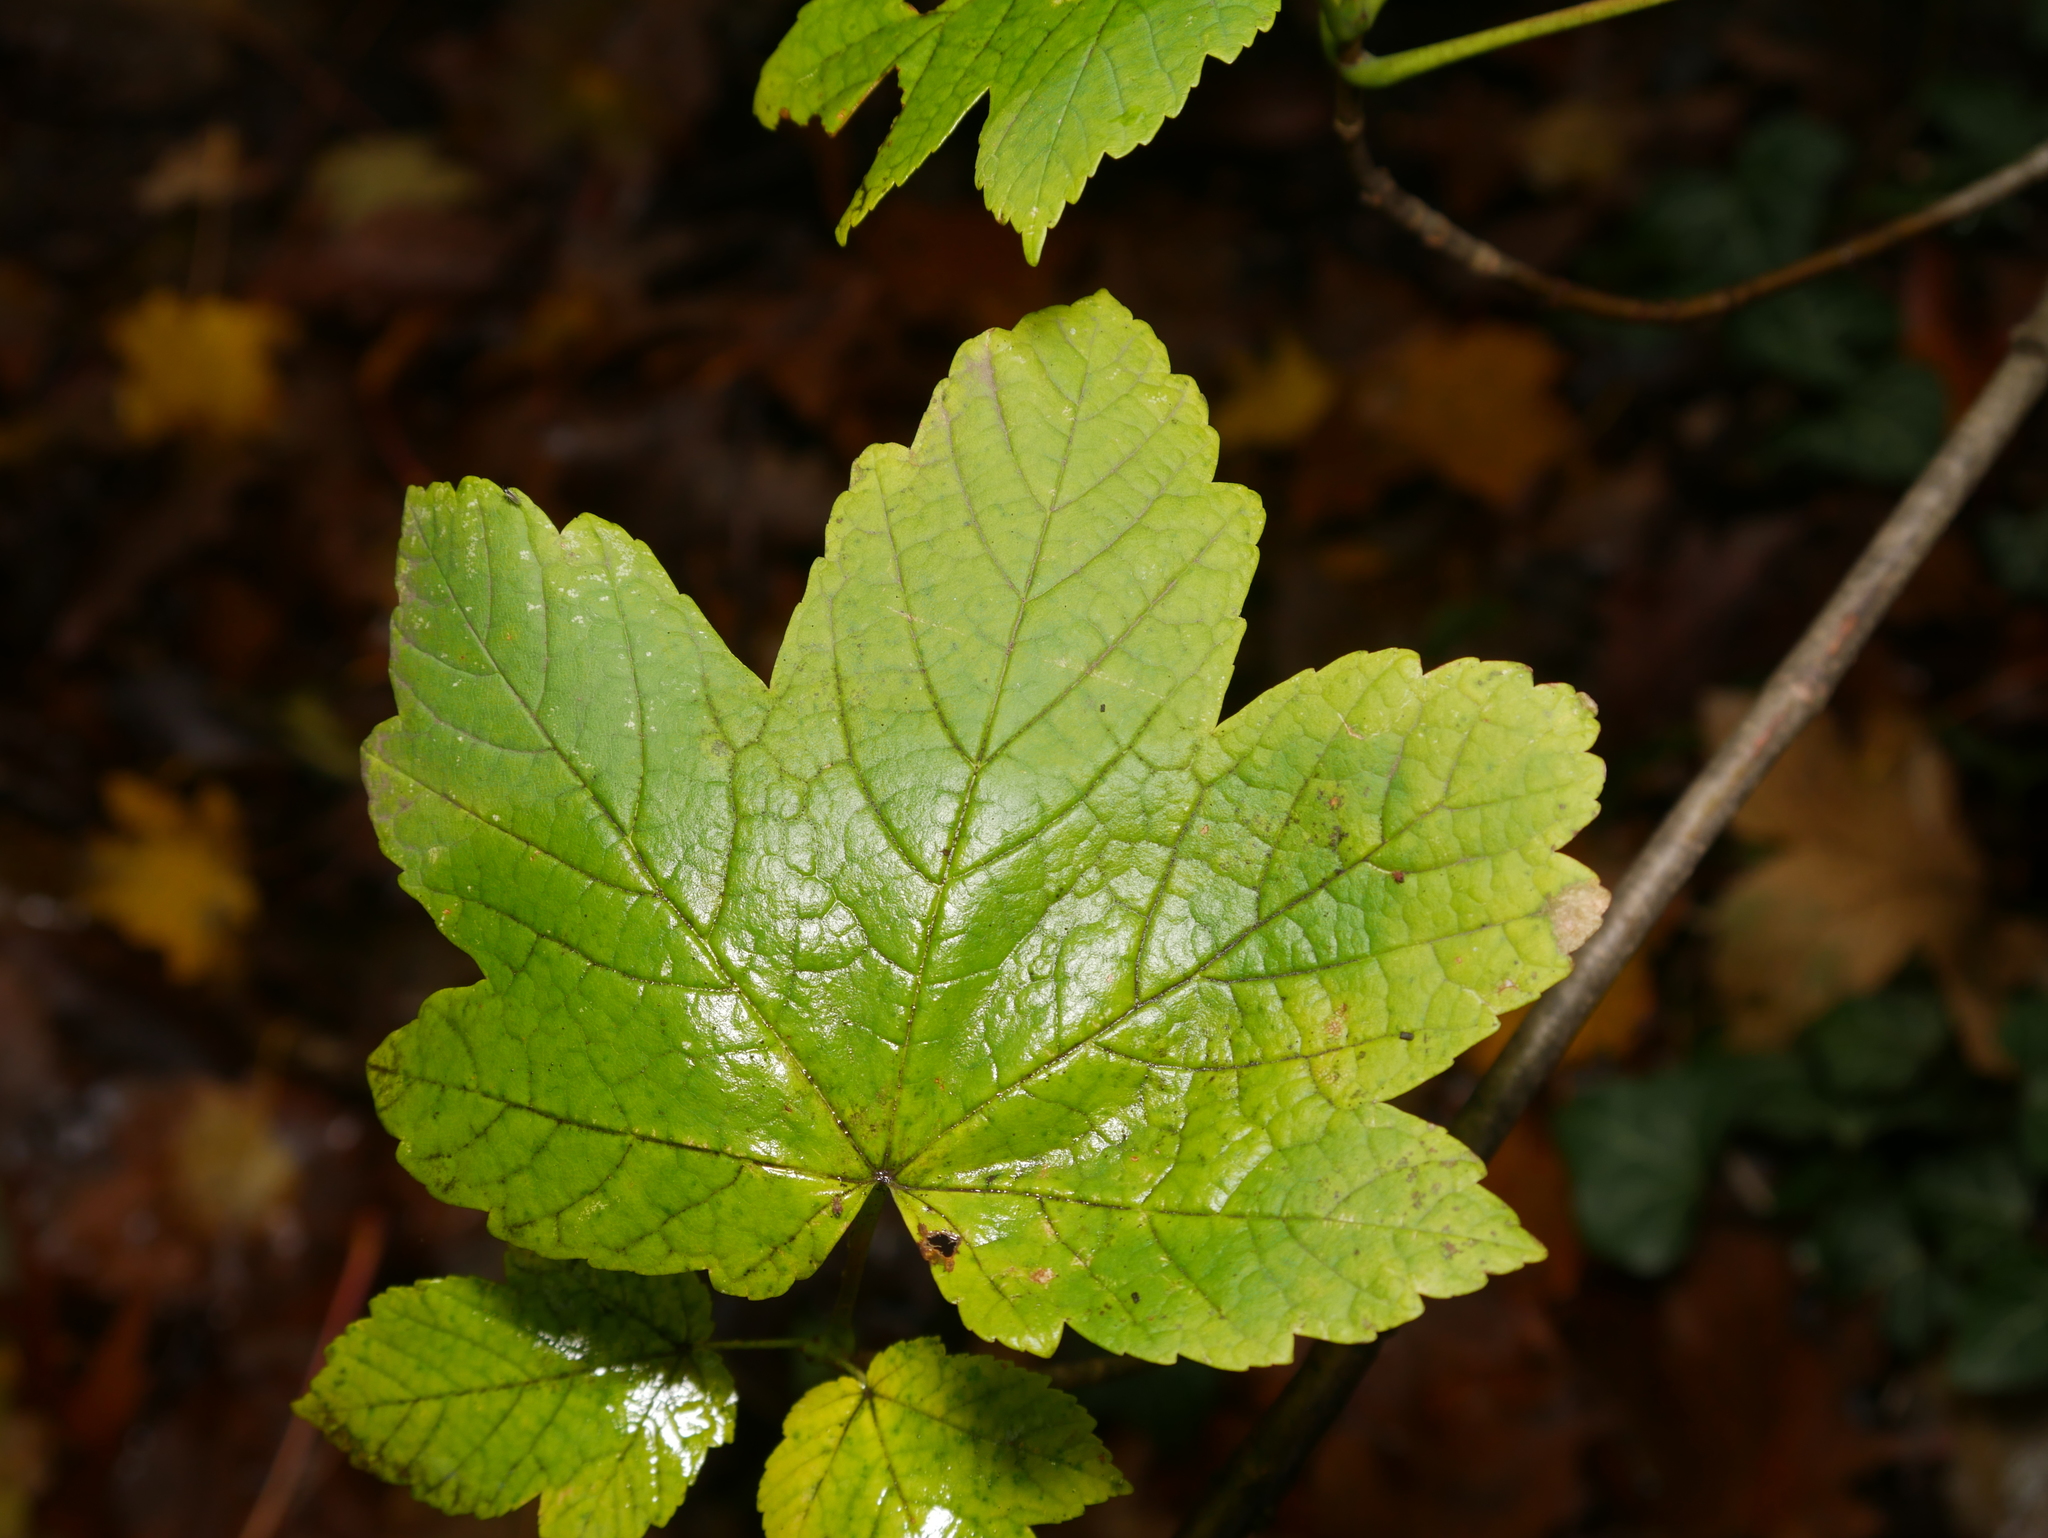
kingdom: Plantae
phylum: Tracheophyta
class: Magnoliopsida
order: Sapindales
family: Sapindaceae
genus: Acer
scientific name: Acer pseudoplatanus
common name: Sycamore
